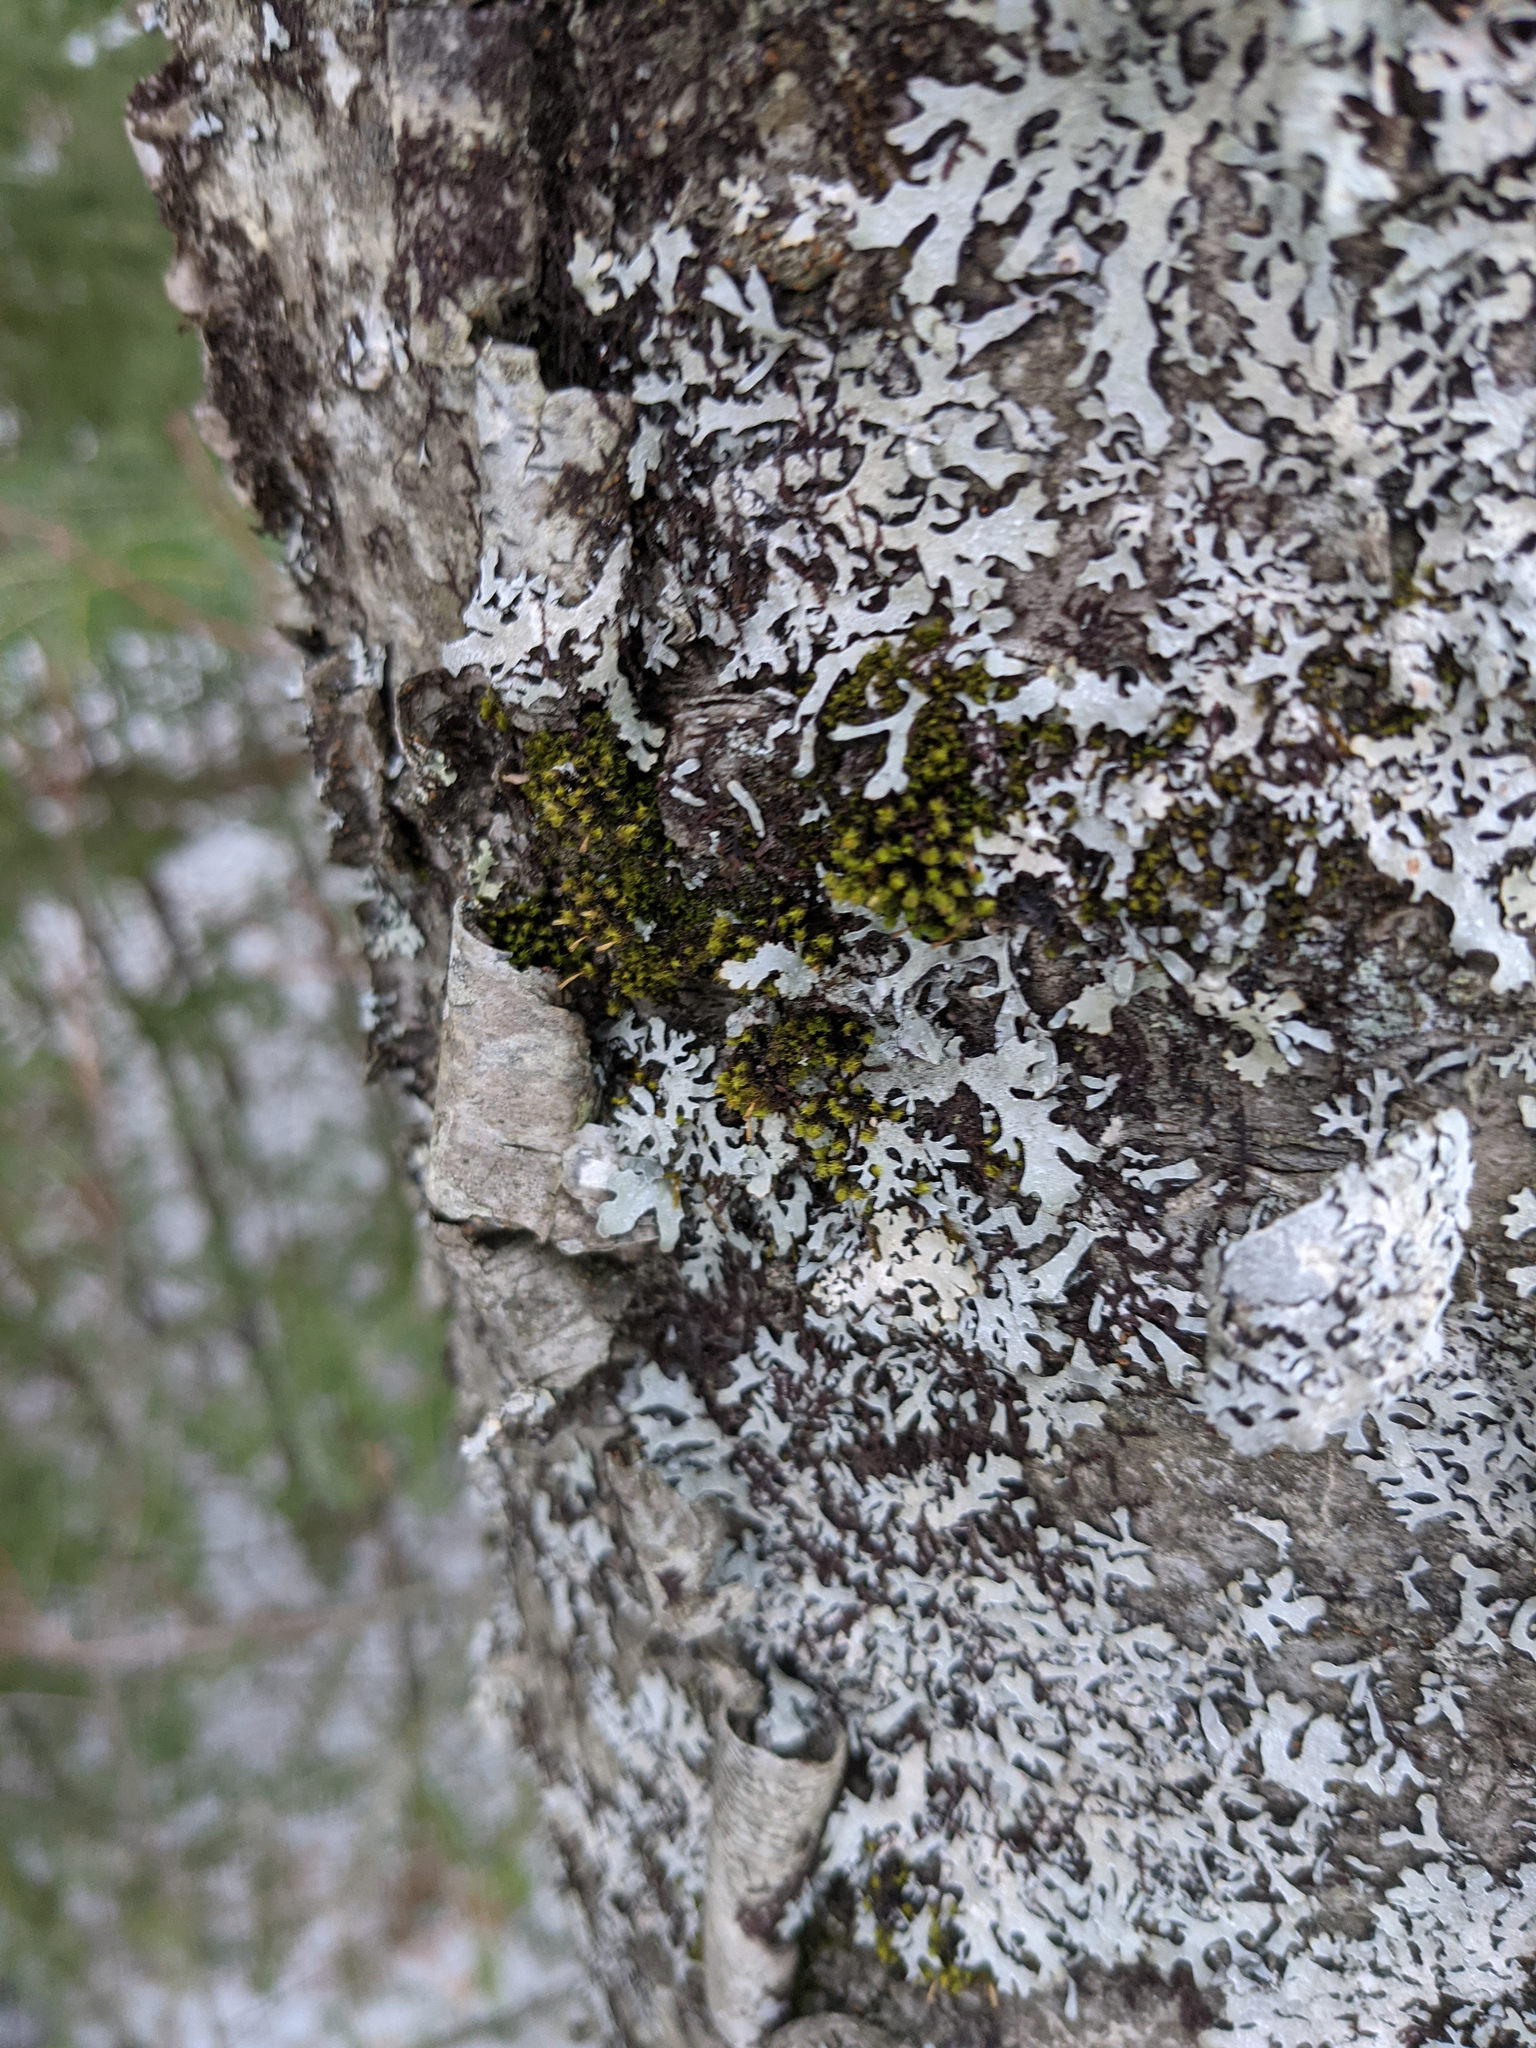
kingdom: Plantae
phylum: Bryophyta
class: Bryopsida
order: Orthotrichales
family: Orthotrichaceae
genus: Ulota
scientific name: Ulota crispa
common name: Crisped pincushion moss
